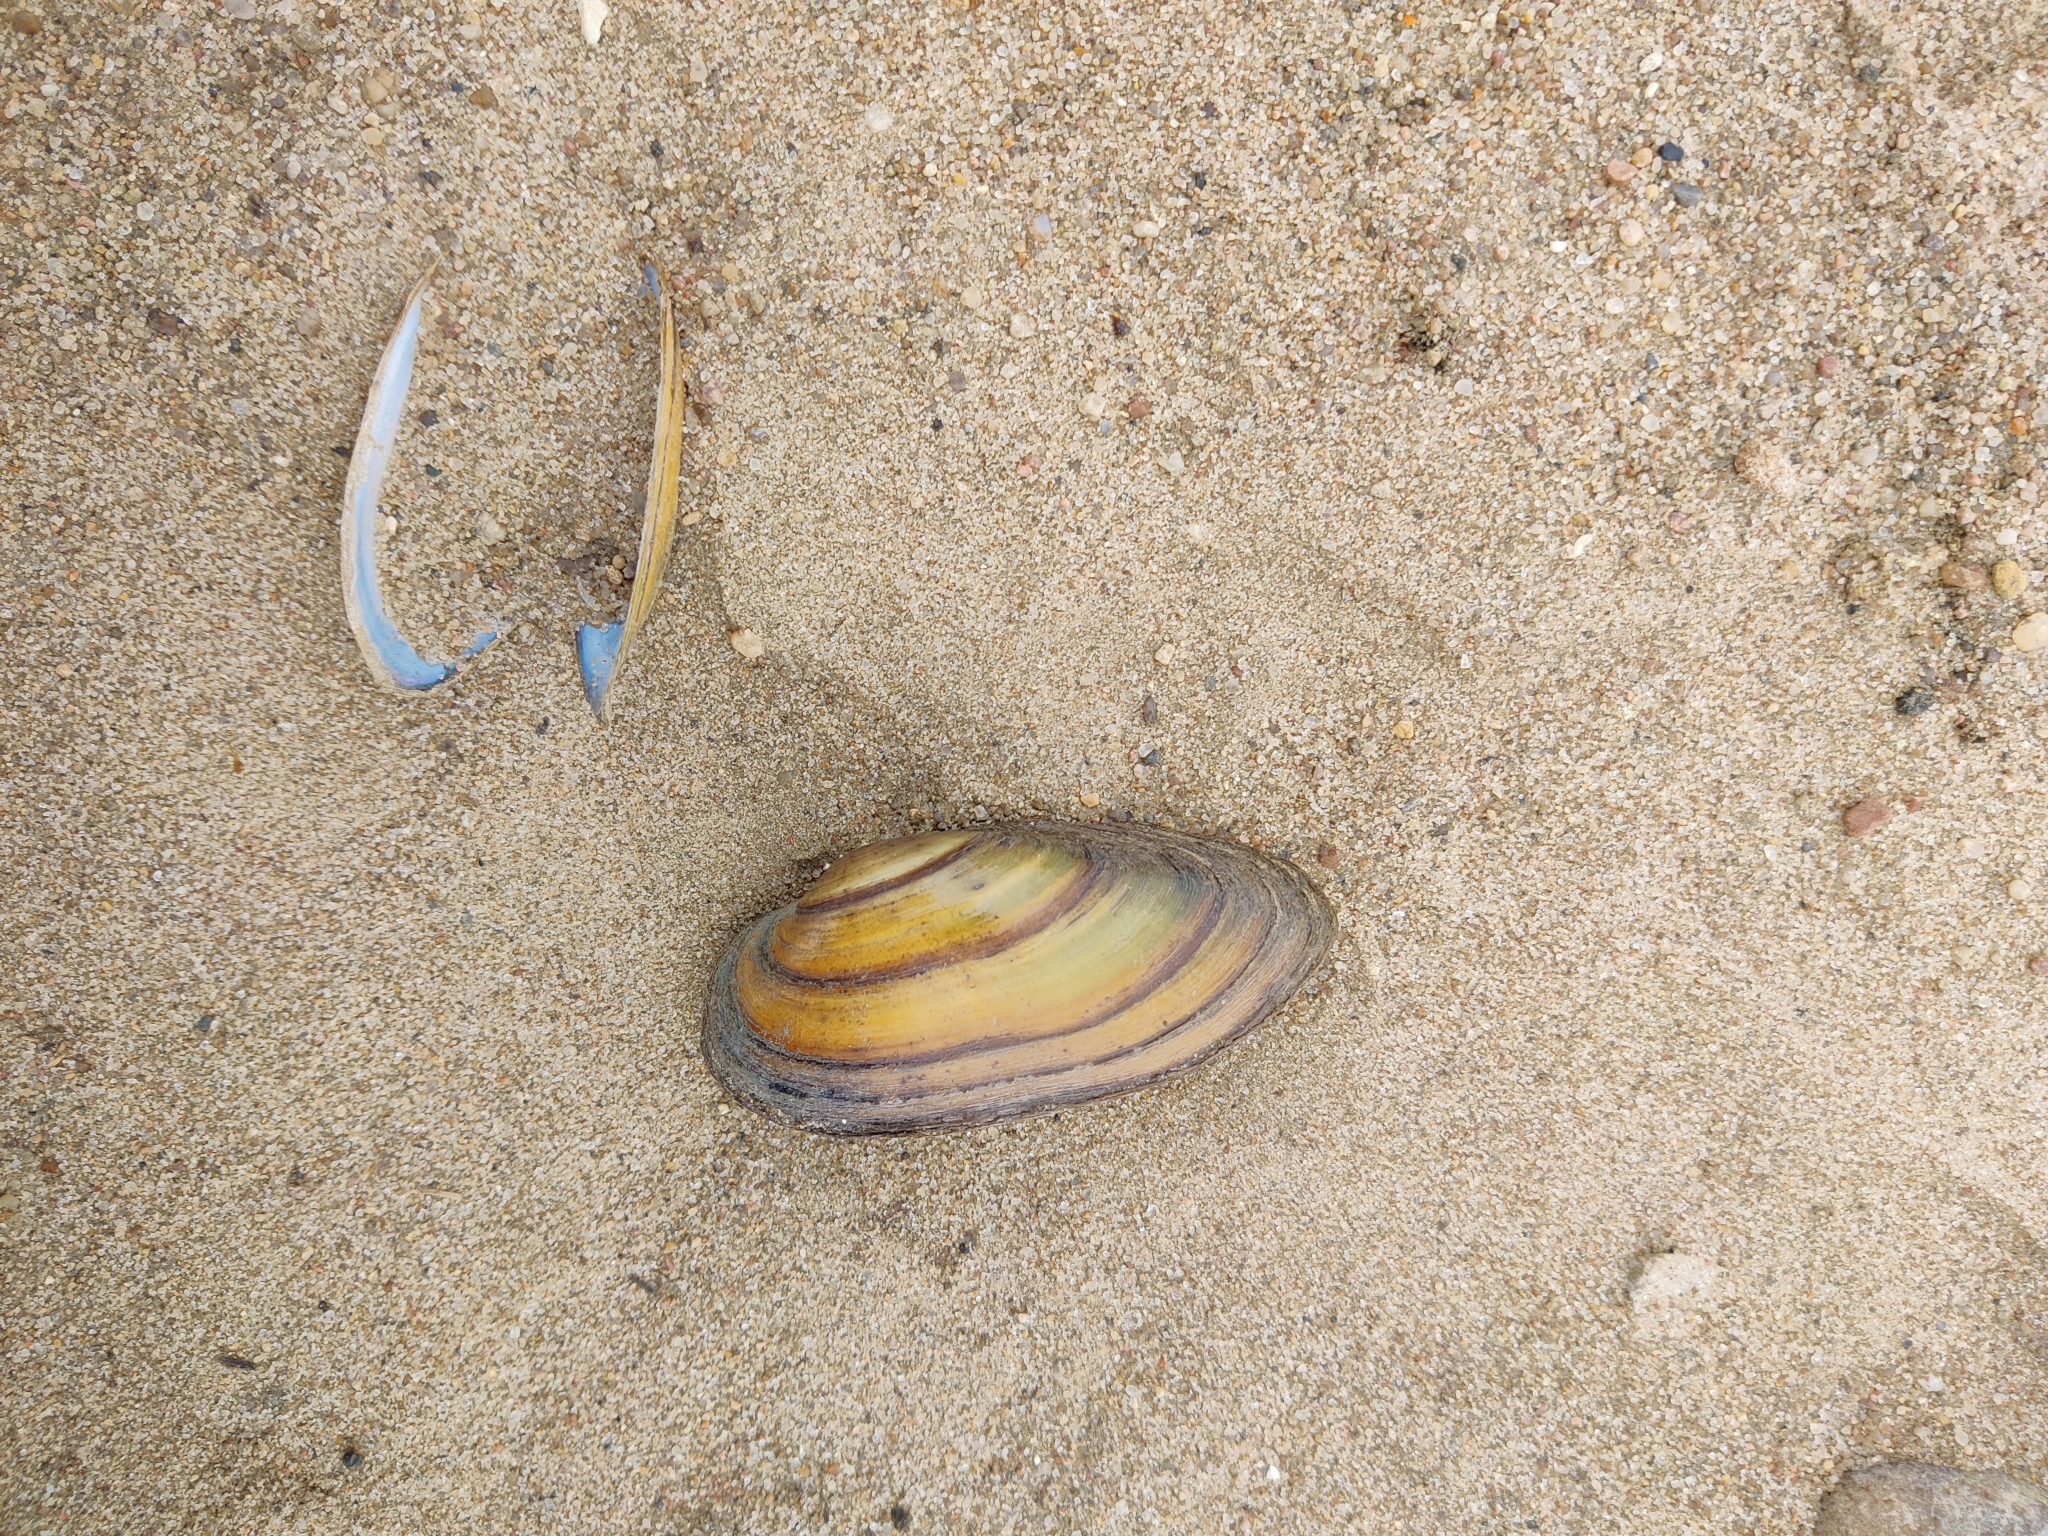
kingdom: Animalia
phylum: Mollusca
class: Bivalvia
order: Unionida
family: Unionidae
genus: Unio
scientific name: Unio pictorum
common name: Painter's mussel
